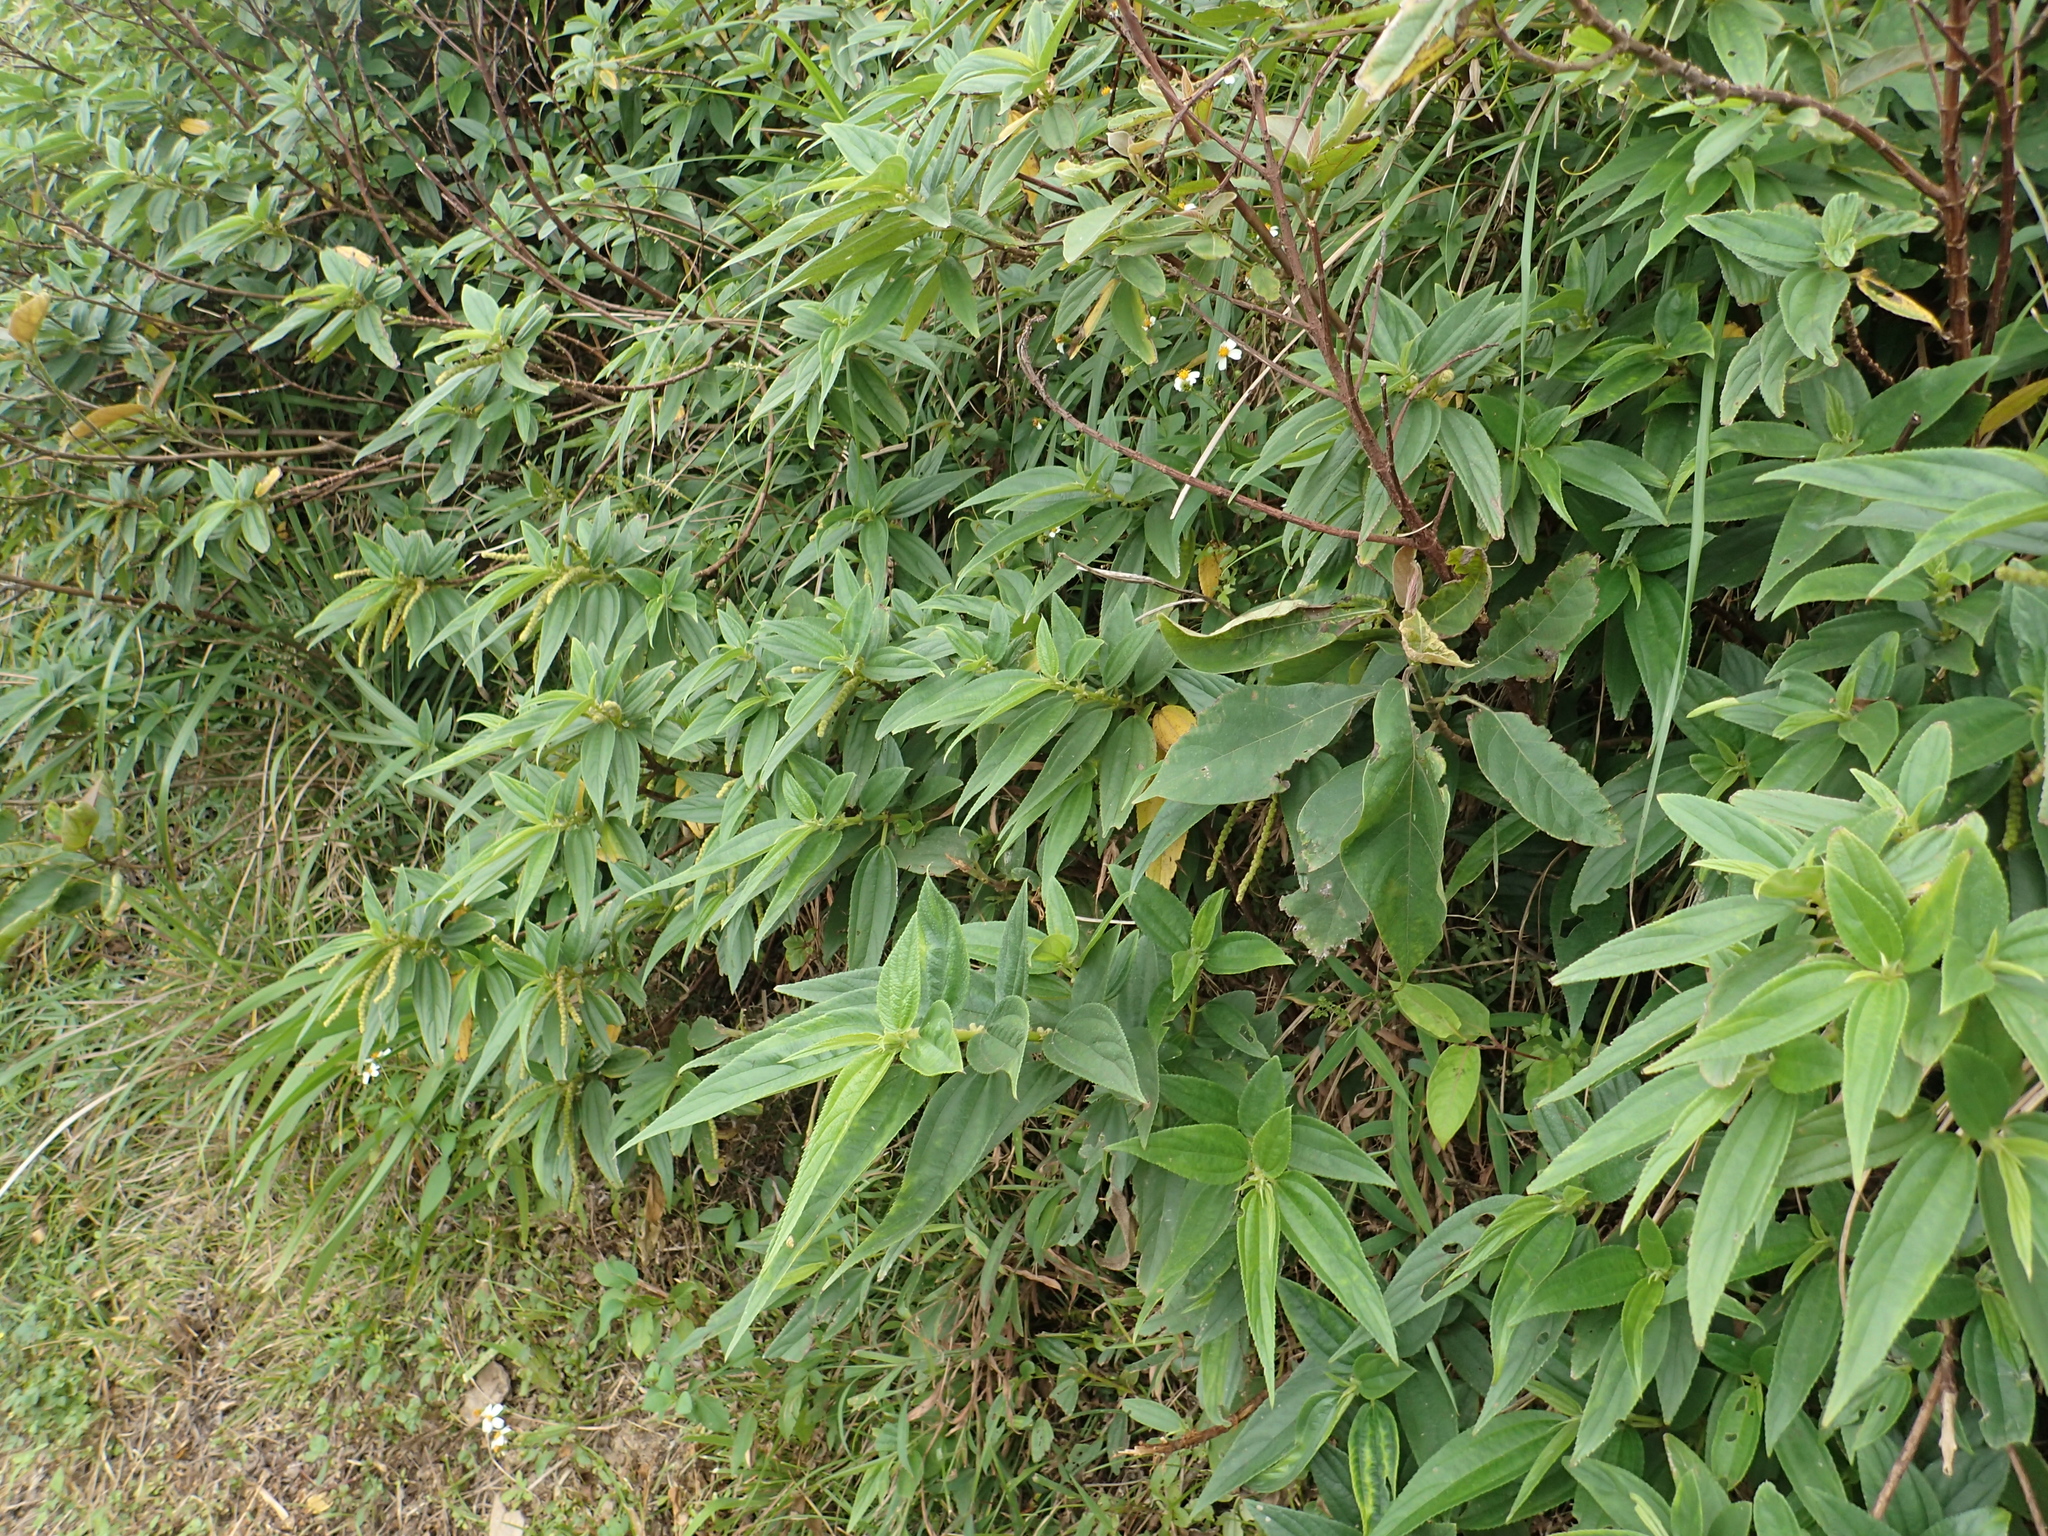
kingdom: Plantae
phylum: Tracheophyta
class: Magnoliopsida
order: Rosales
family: Urticaceae
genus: Boehmeria
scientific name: Boehmeria densiflora
